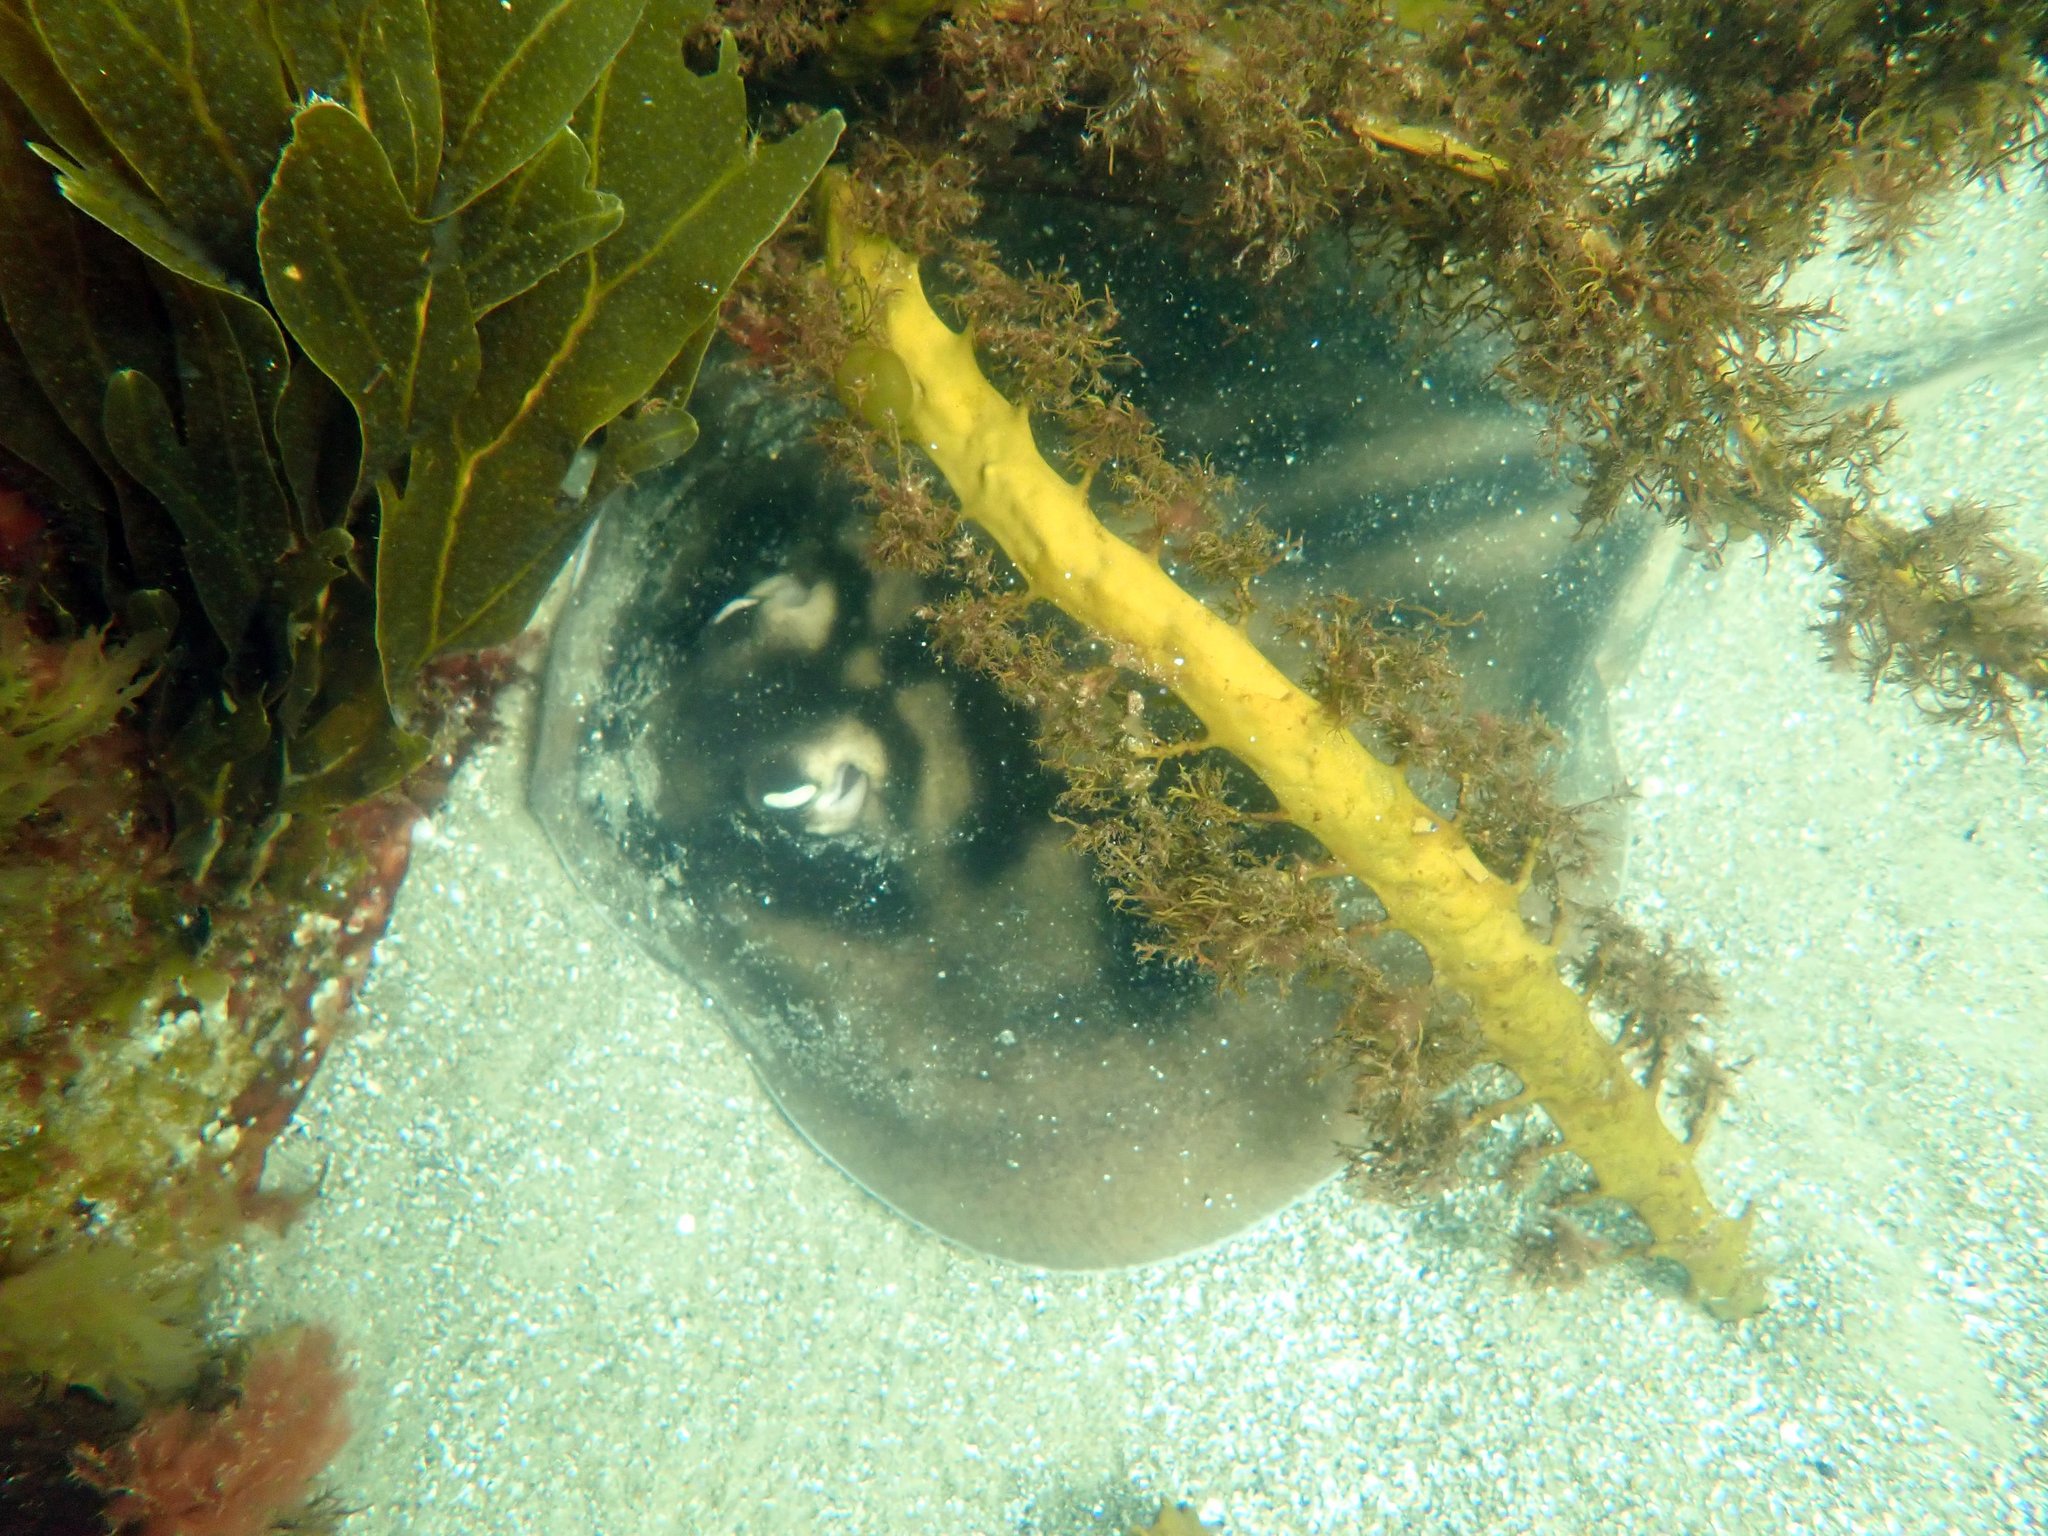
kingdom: Animalia
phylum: Chordata
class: Elasmobranchii
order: Myliobatiformes
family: Urolophidae
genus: Urolophus
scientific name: Urolophus cruciatus
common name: Banded stingaree
